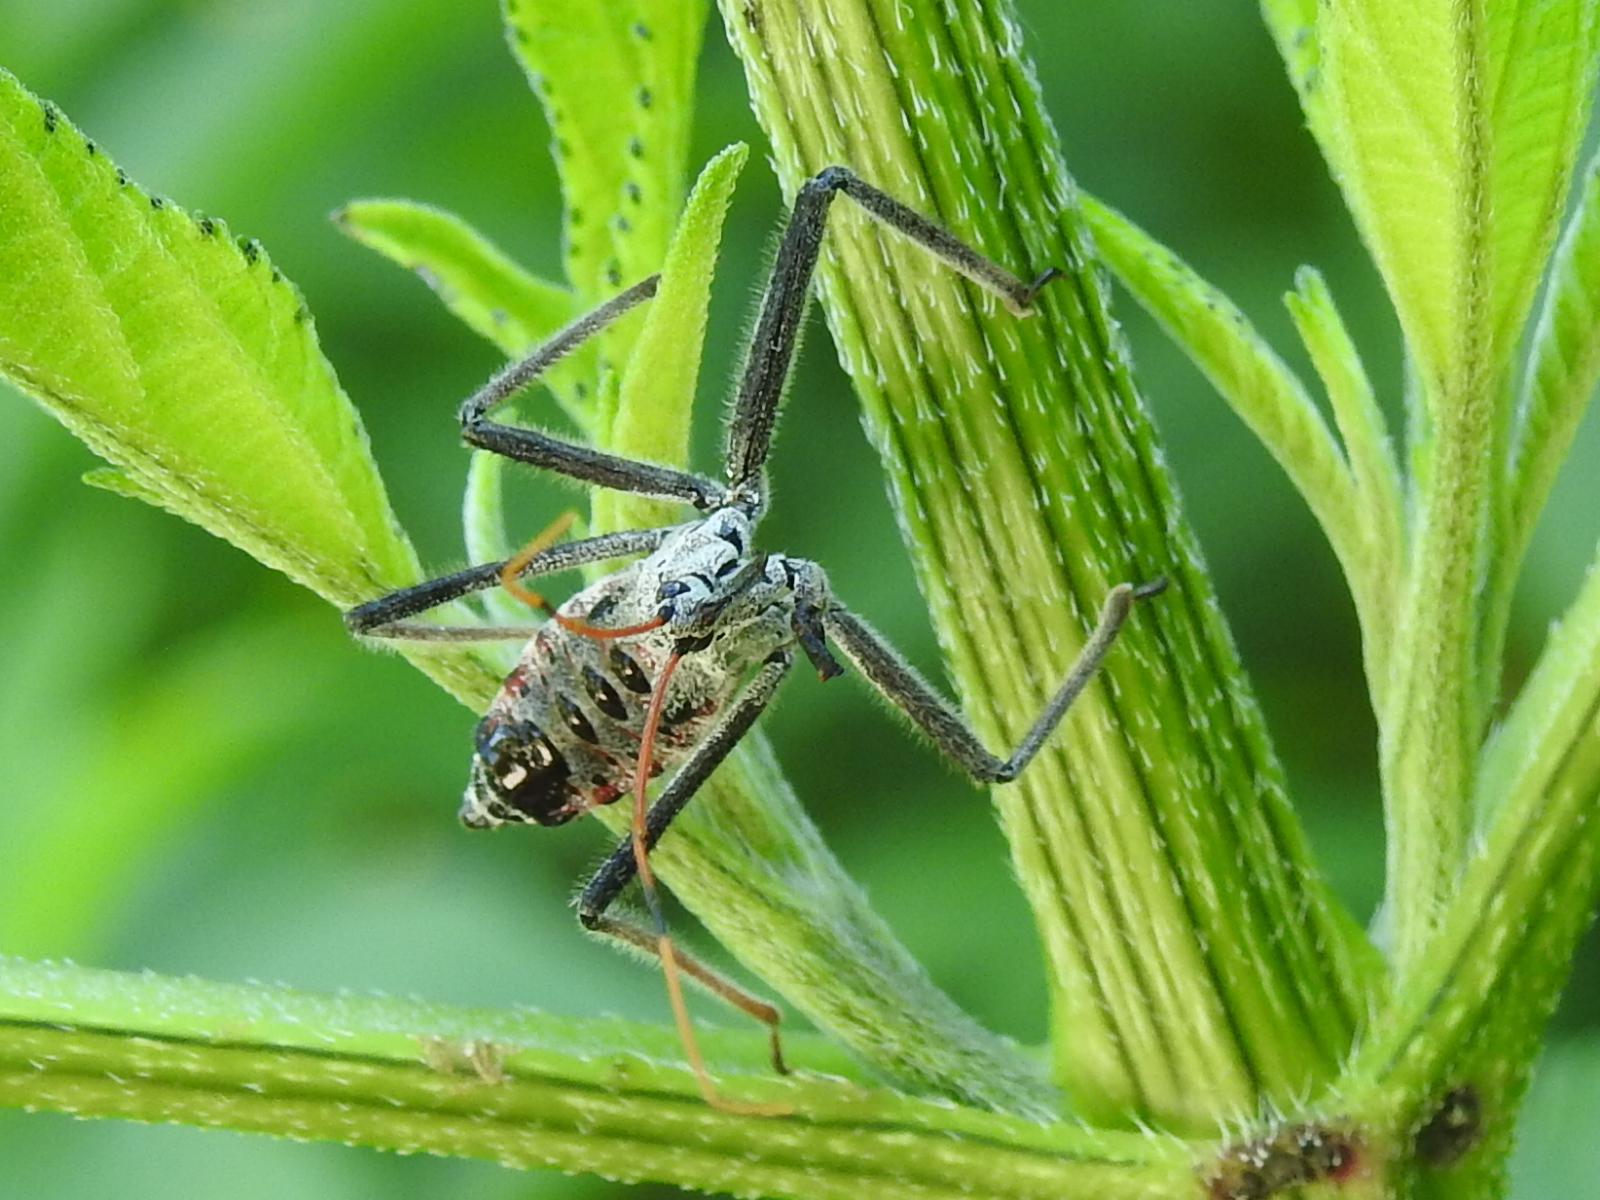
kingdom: Animalia
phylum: Arthropoda
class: Insecta
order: Hemiptera
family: Reduviidae
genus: Arilus
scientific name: Arilus cristatus
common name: North american wheel bug
